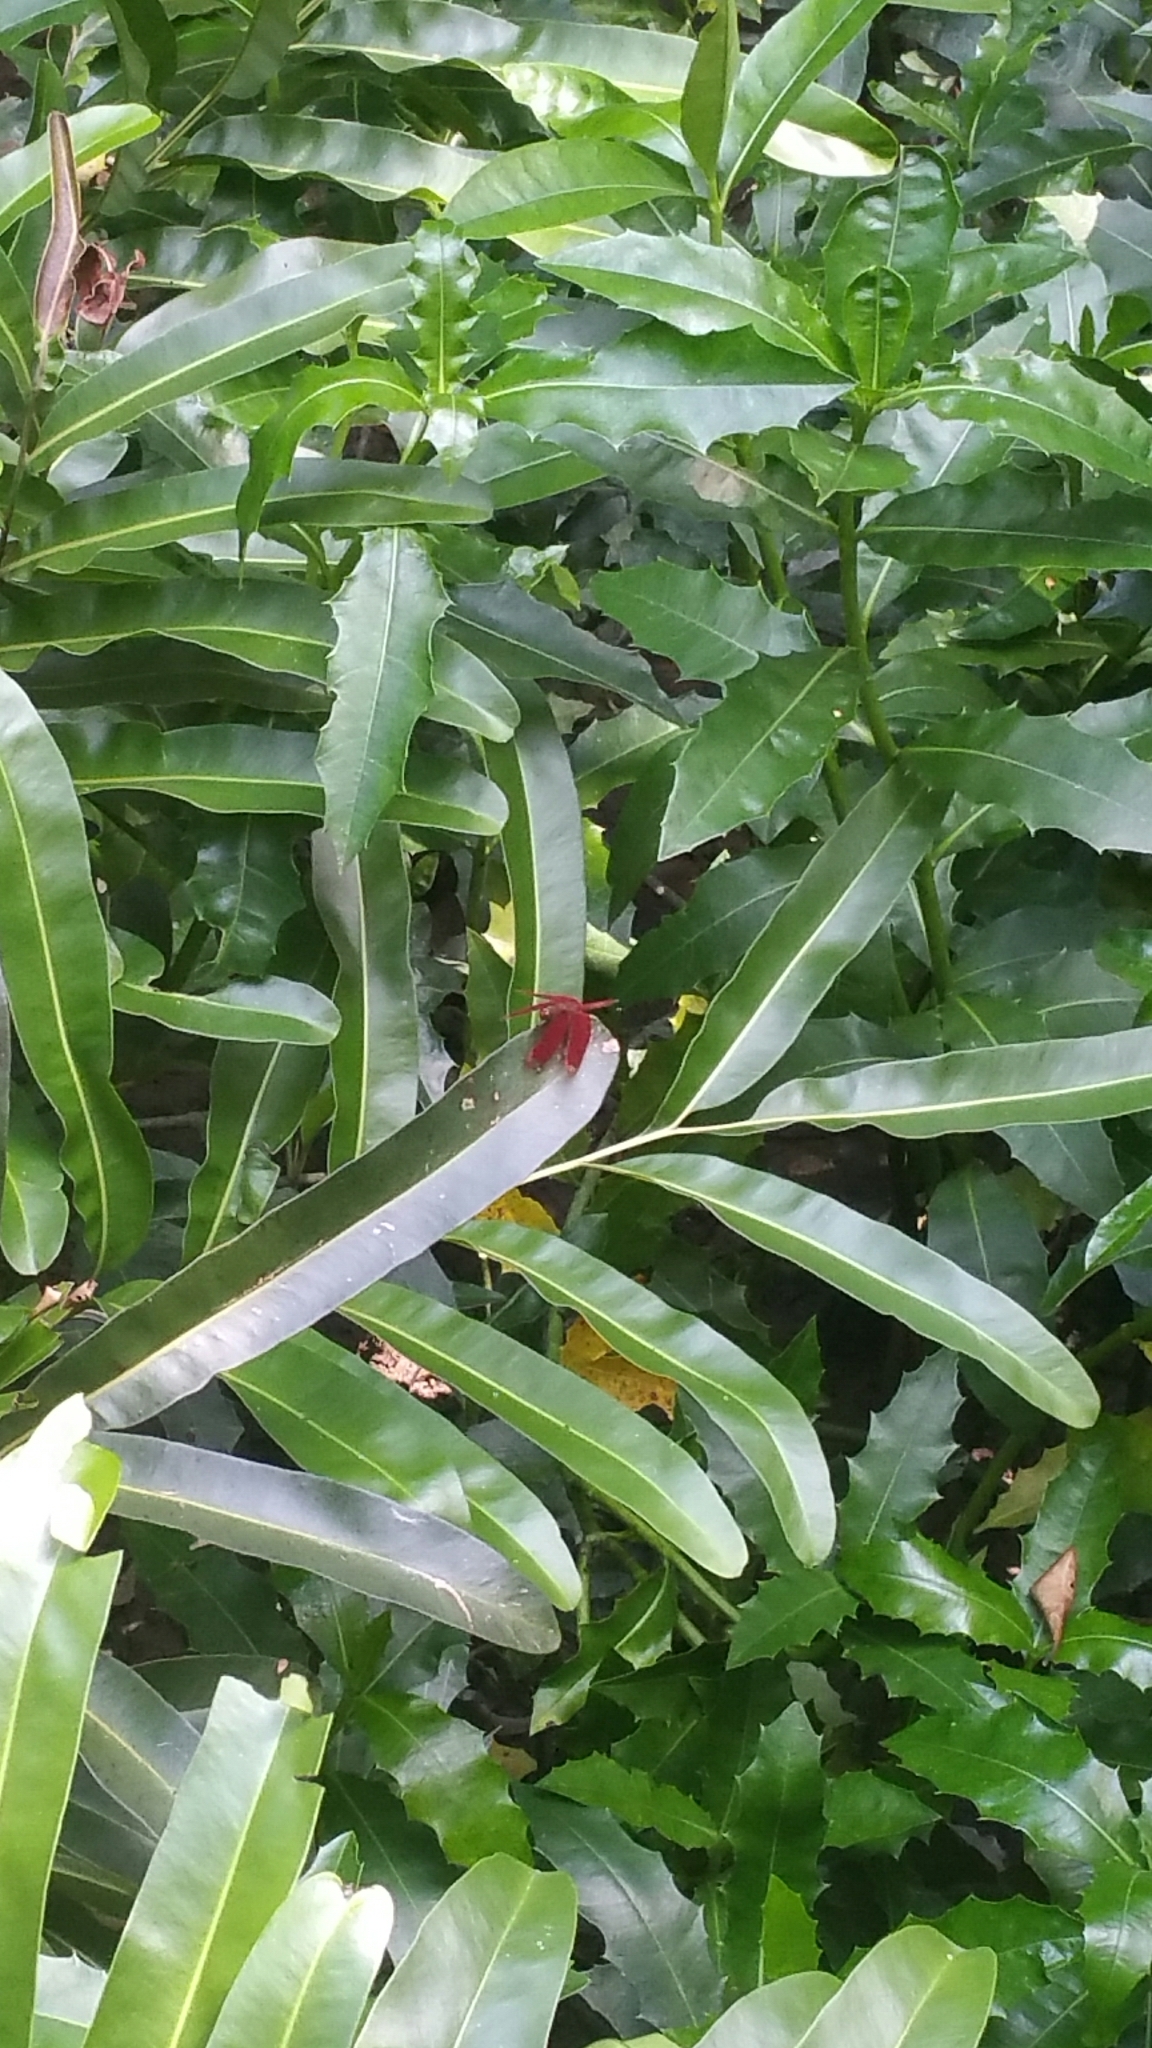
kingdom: Animalia
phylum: Arthropoda
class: Insecta
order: Odonata
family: Libellulidae
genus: Neurothemis
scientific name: Neurothemis fulvia
